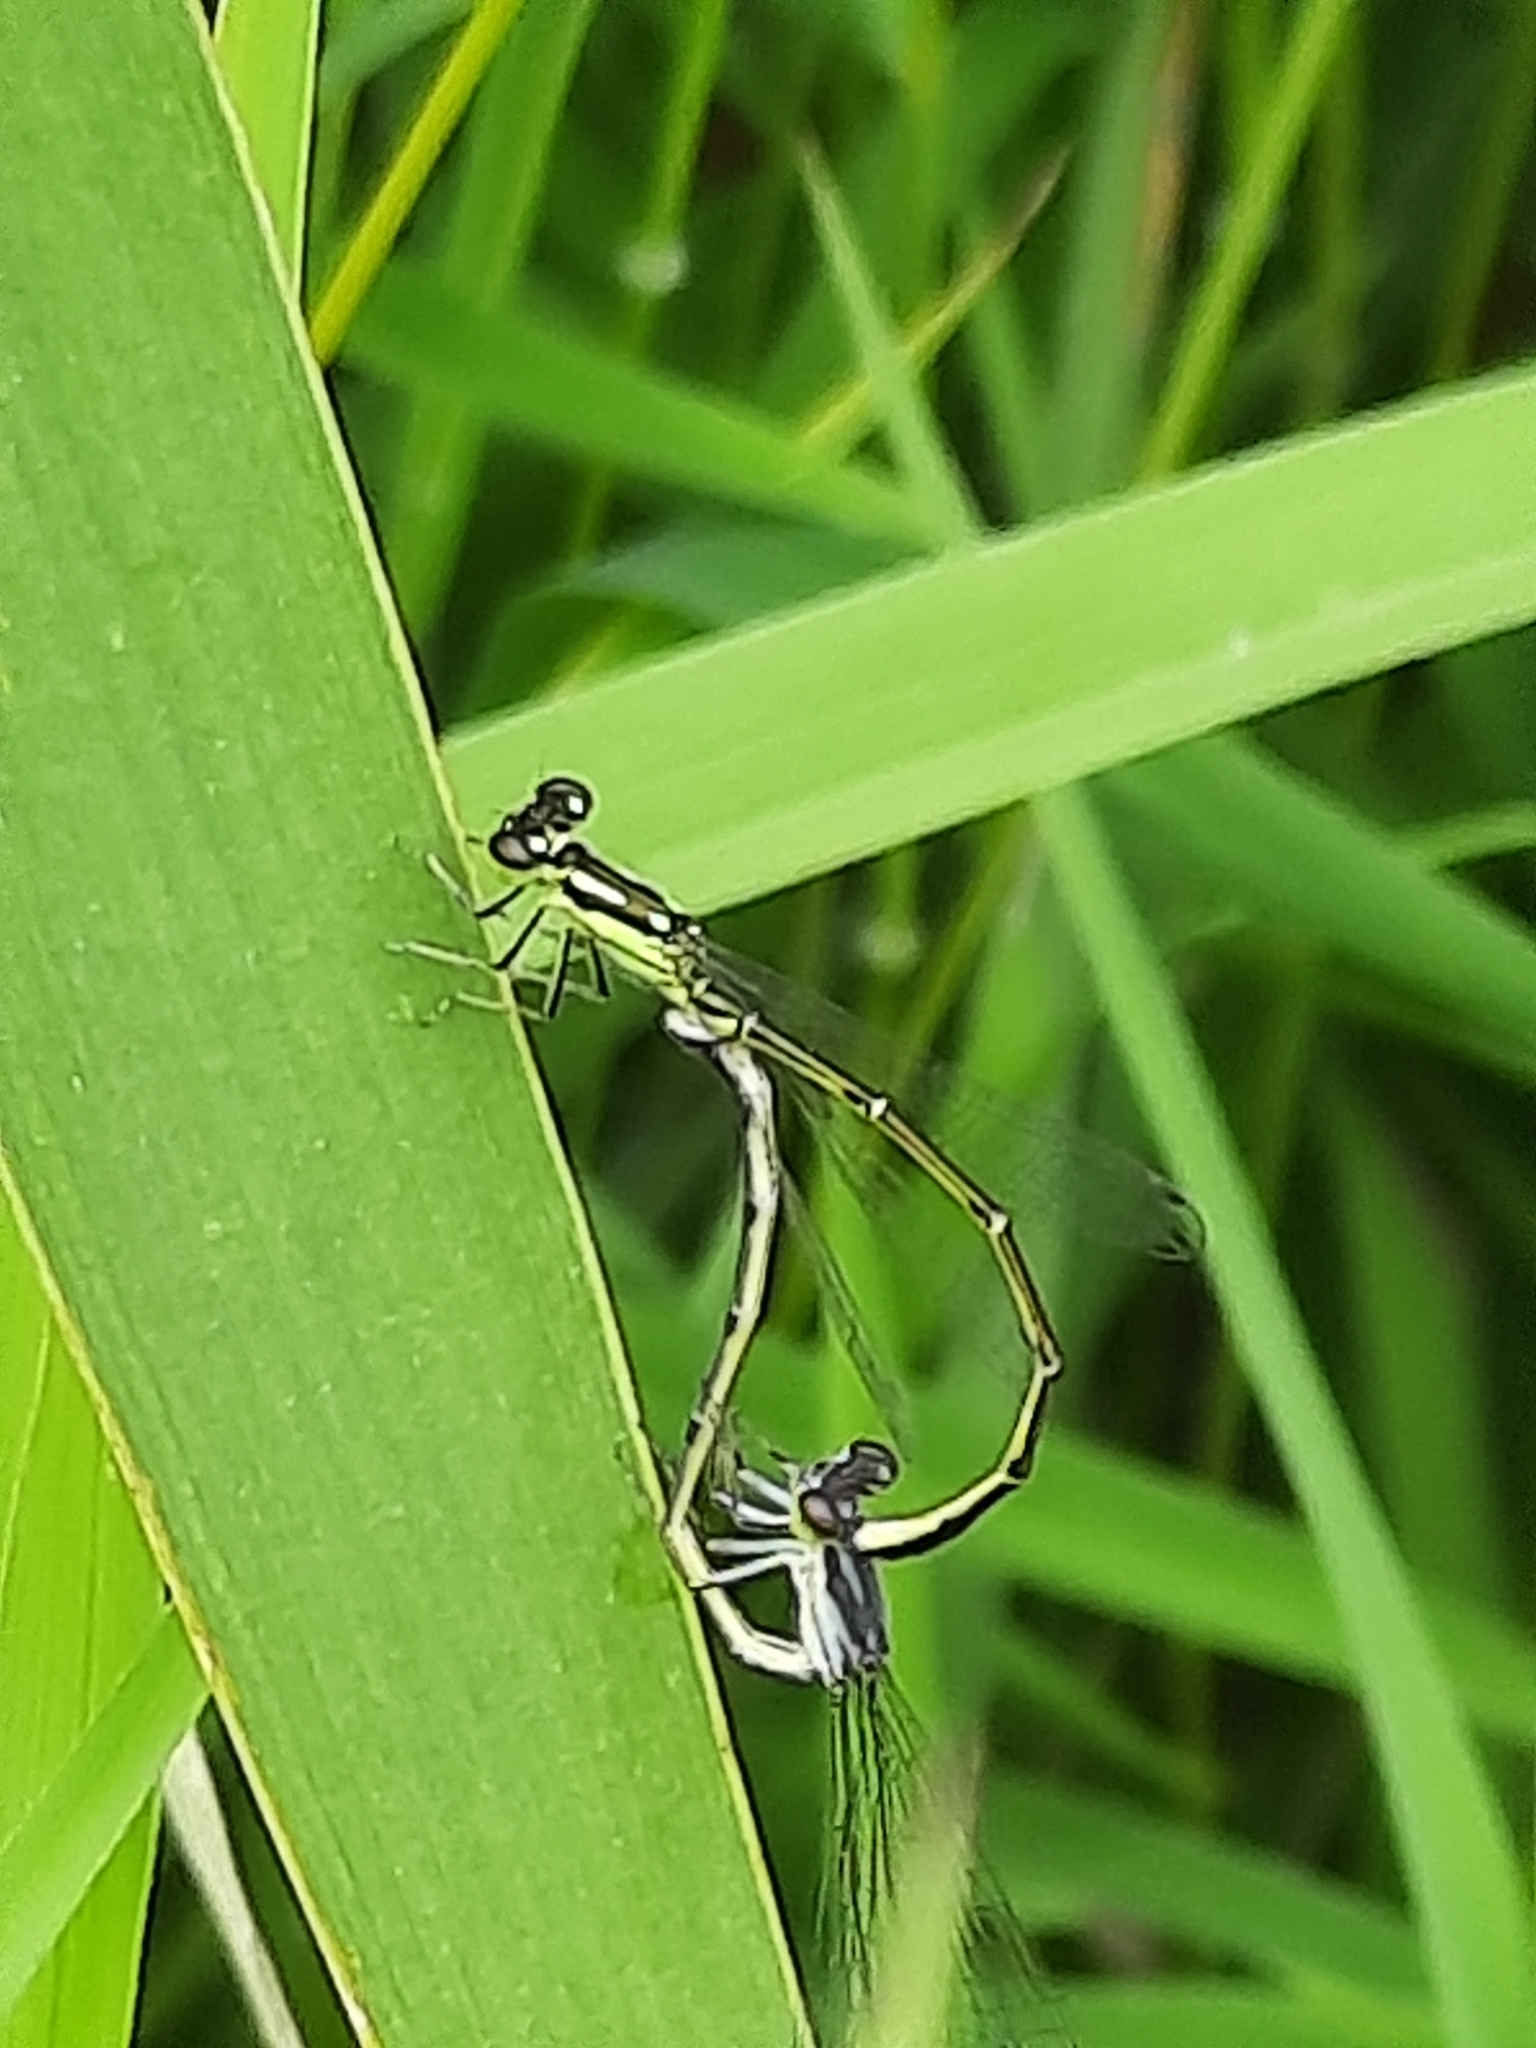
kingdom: Animalia
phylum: Arthropoda
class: Insecta
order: Odonata
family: Coenagrionidae
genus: Ischnura
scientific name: Ischnura posita
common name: Fragile forktail
